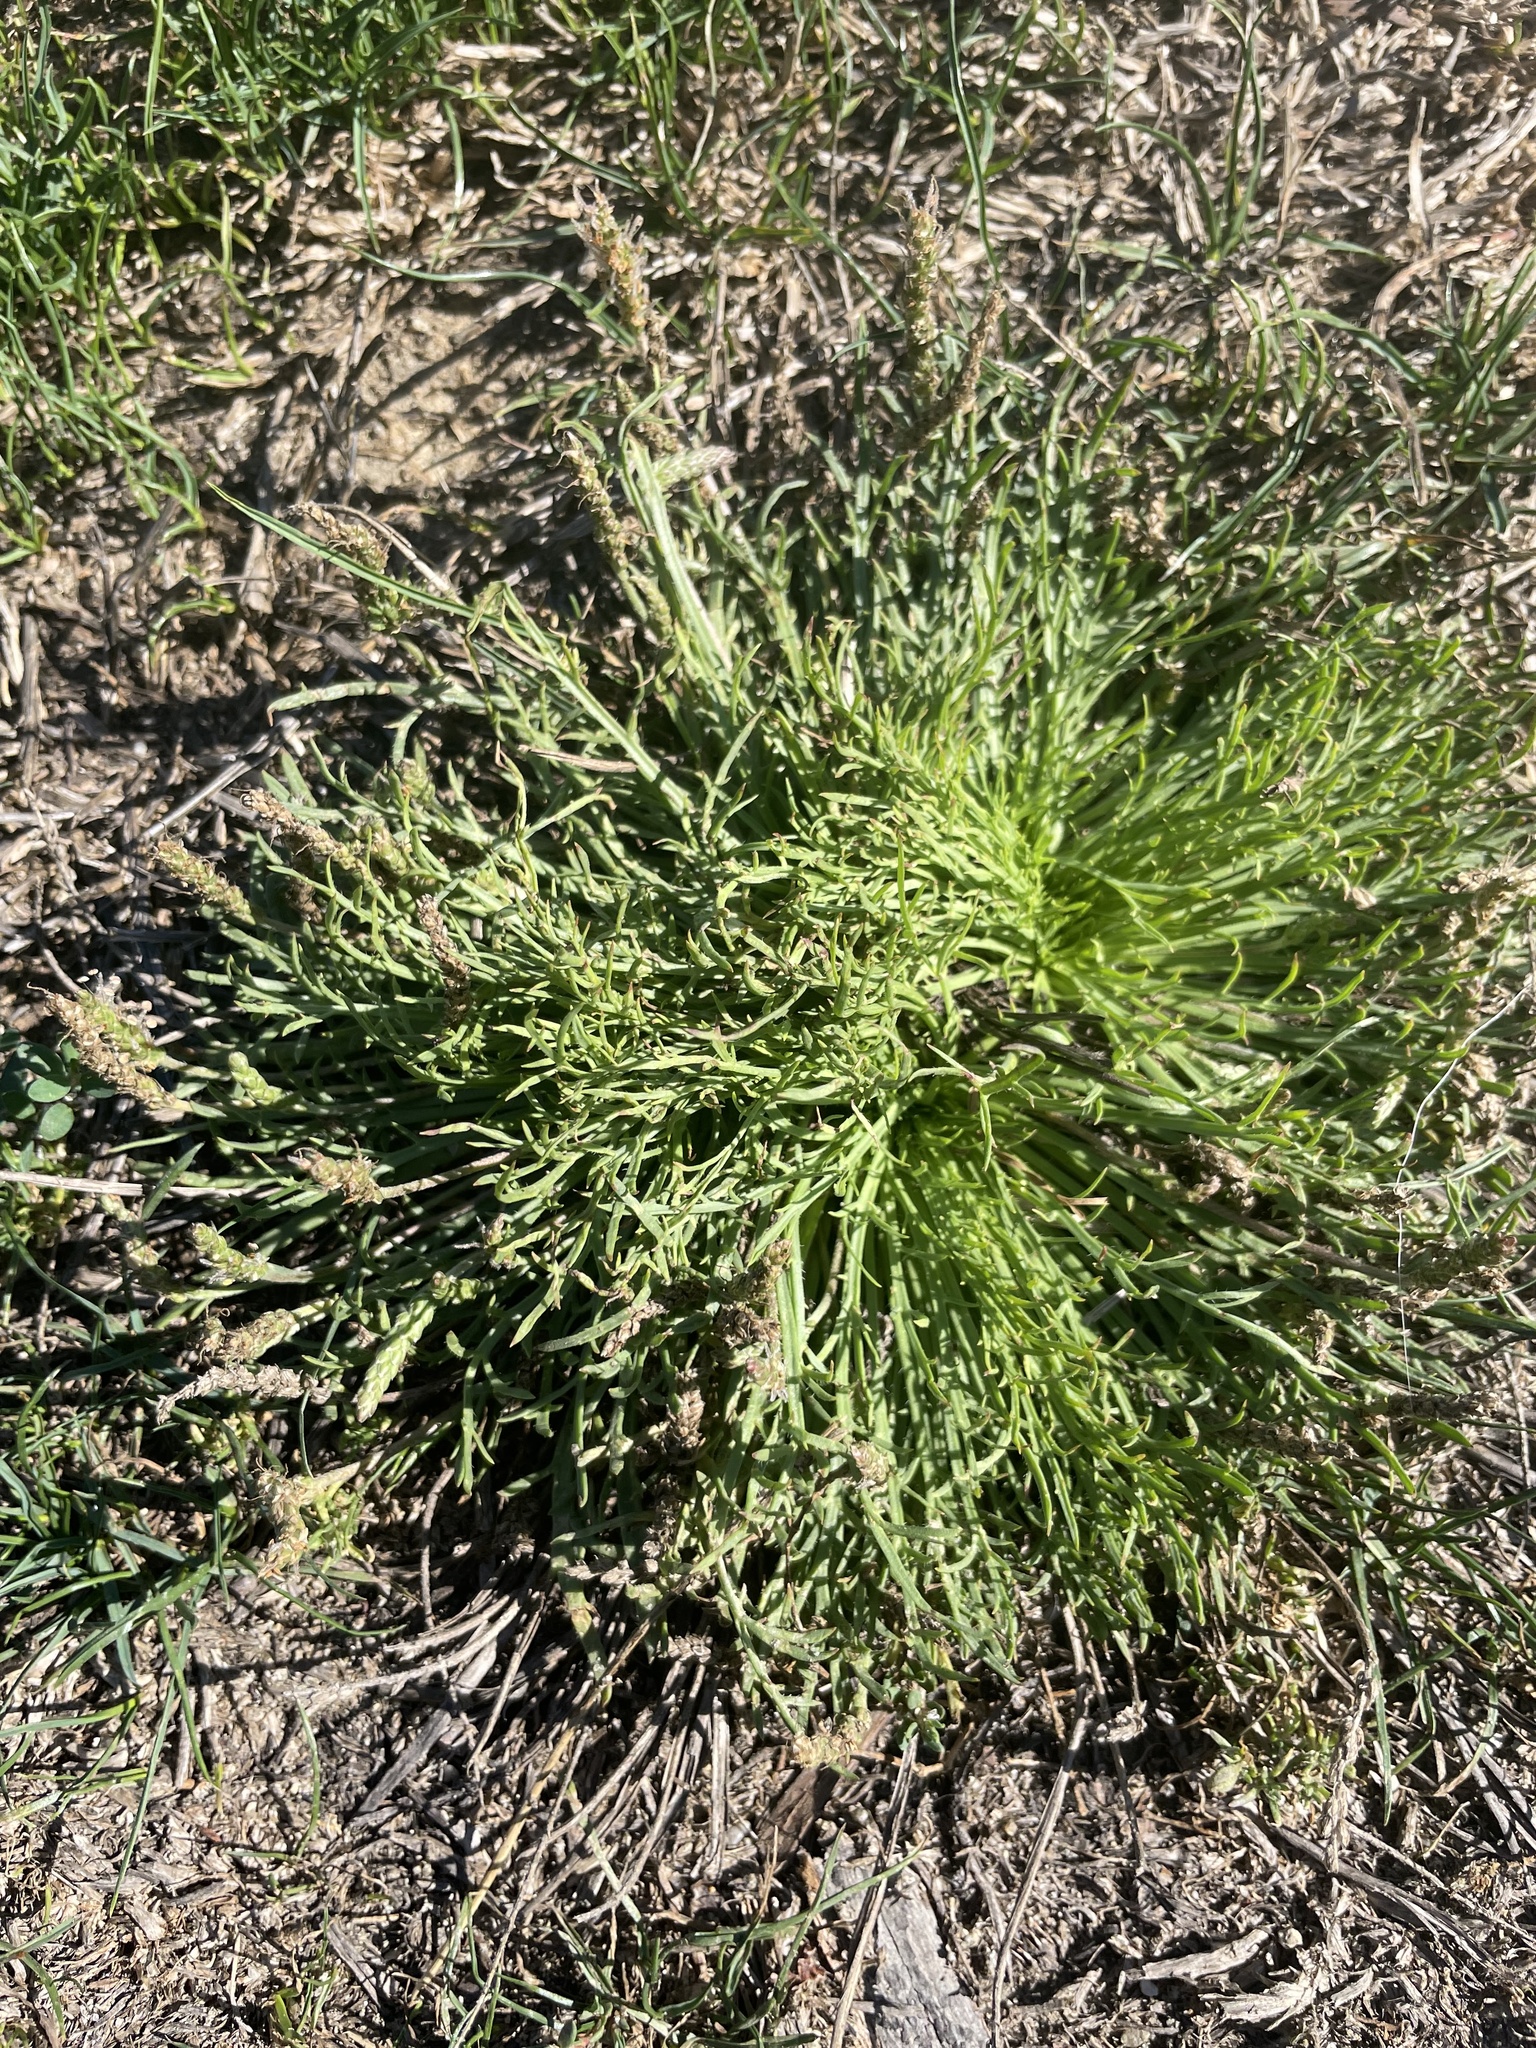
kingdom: Plantae
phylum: Tracheophyta
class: Magnoliopsida
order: Lamiales
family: Plantaginaceae
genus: Plantago
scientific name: Plantago coronopus
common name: Buck's-horn plantain
